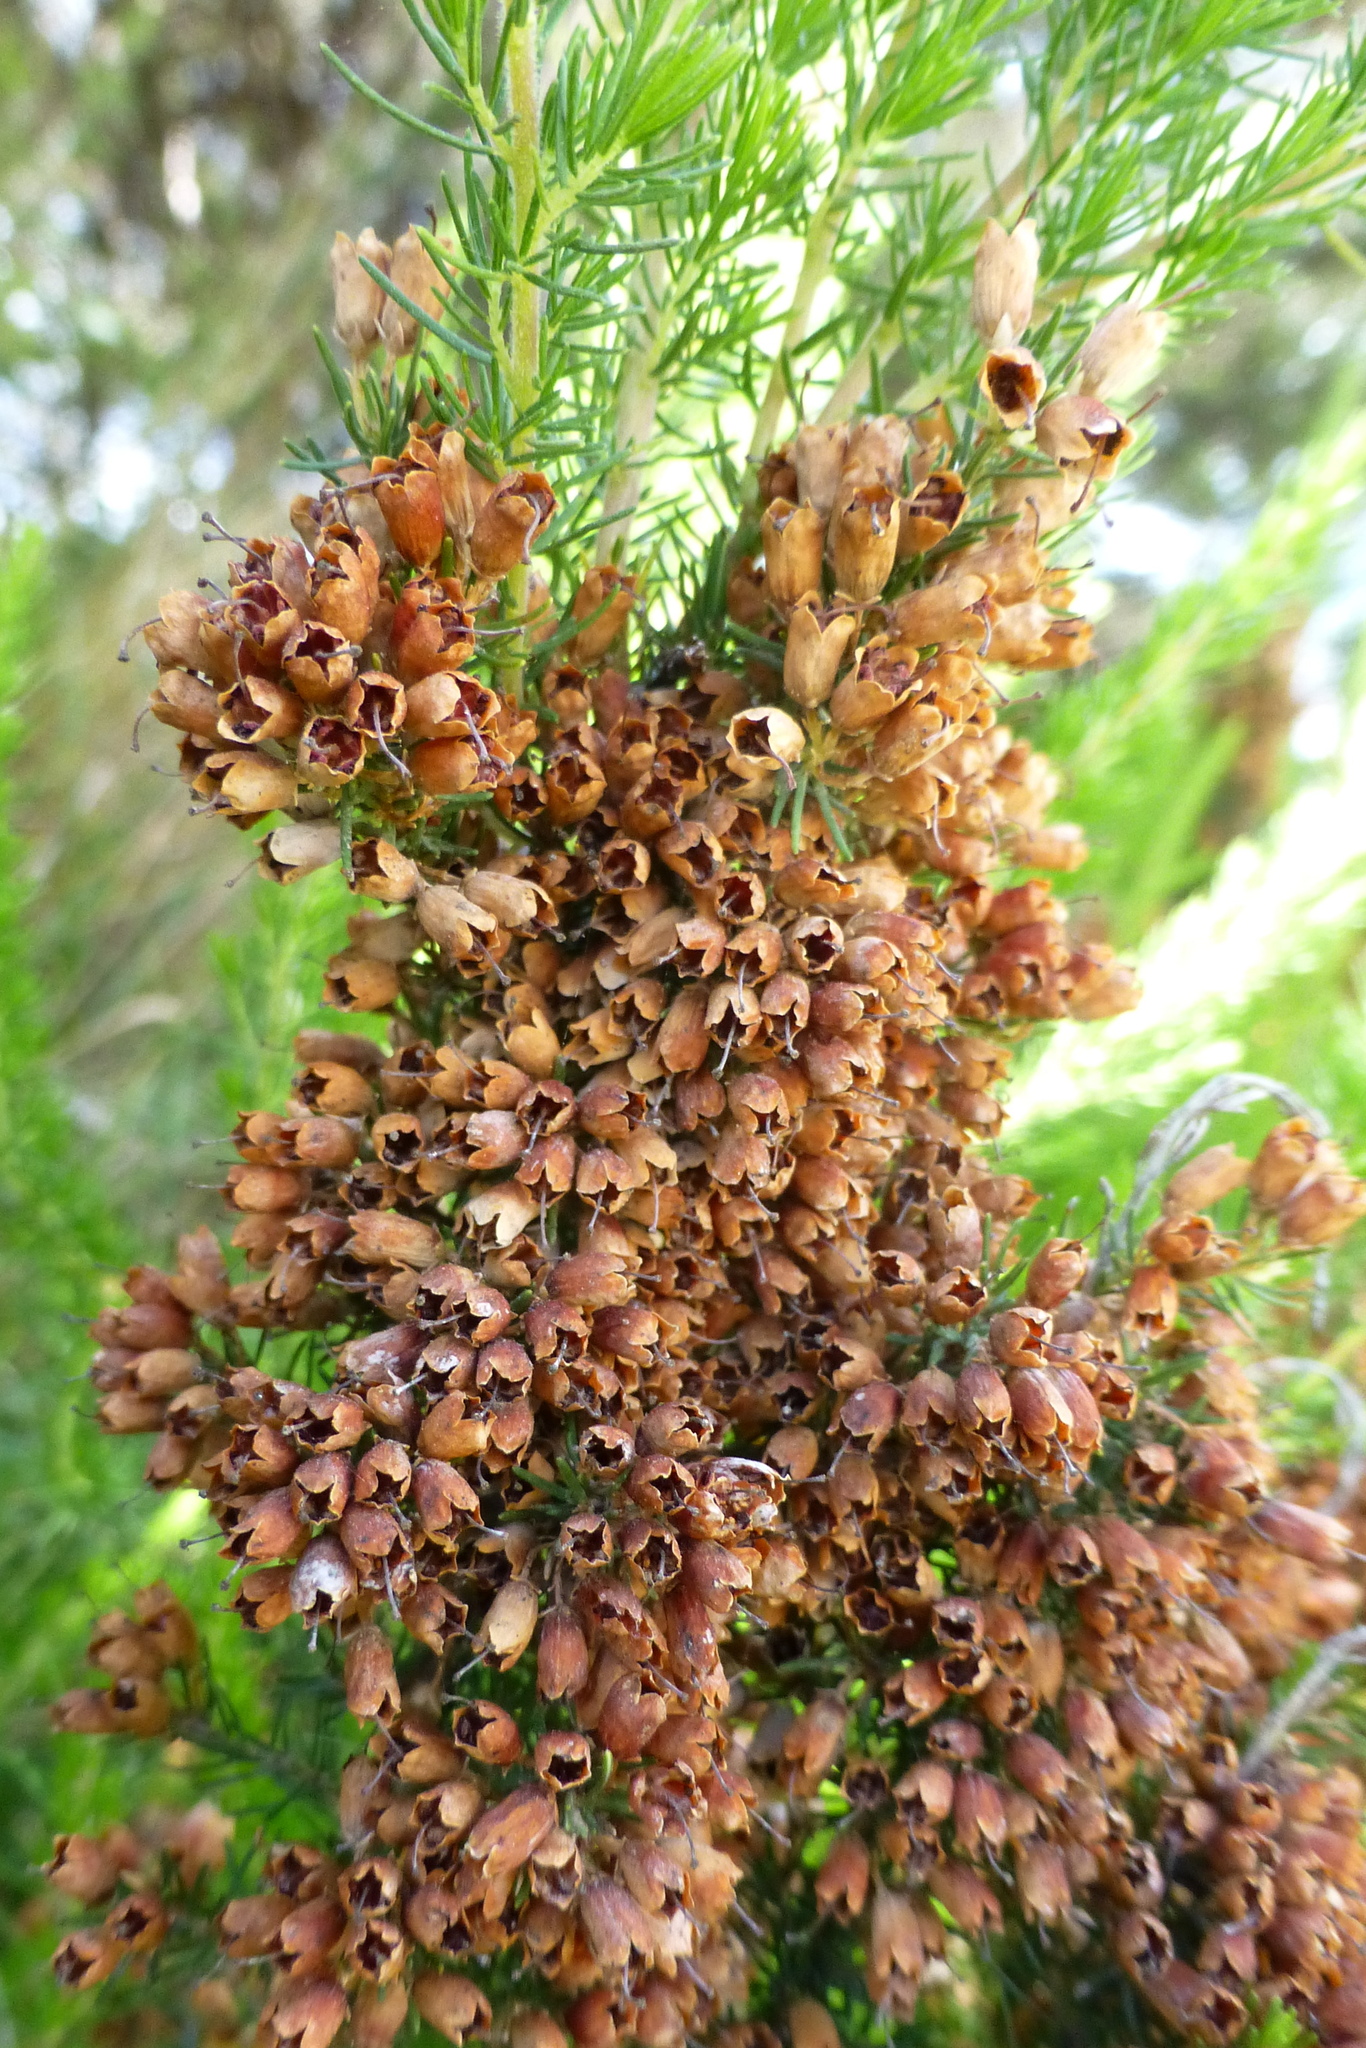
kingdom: Plantae
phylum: Tracheophyta
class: Magnoliopsida
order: Ericales
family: Ericaceae
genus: Erica
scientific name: Erica lusitanica
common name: Spanish heath
